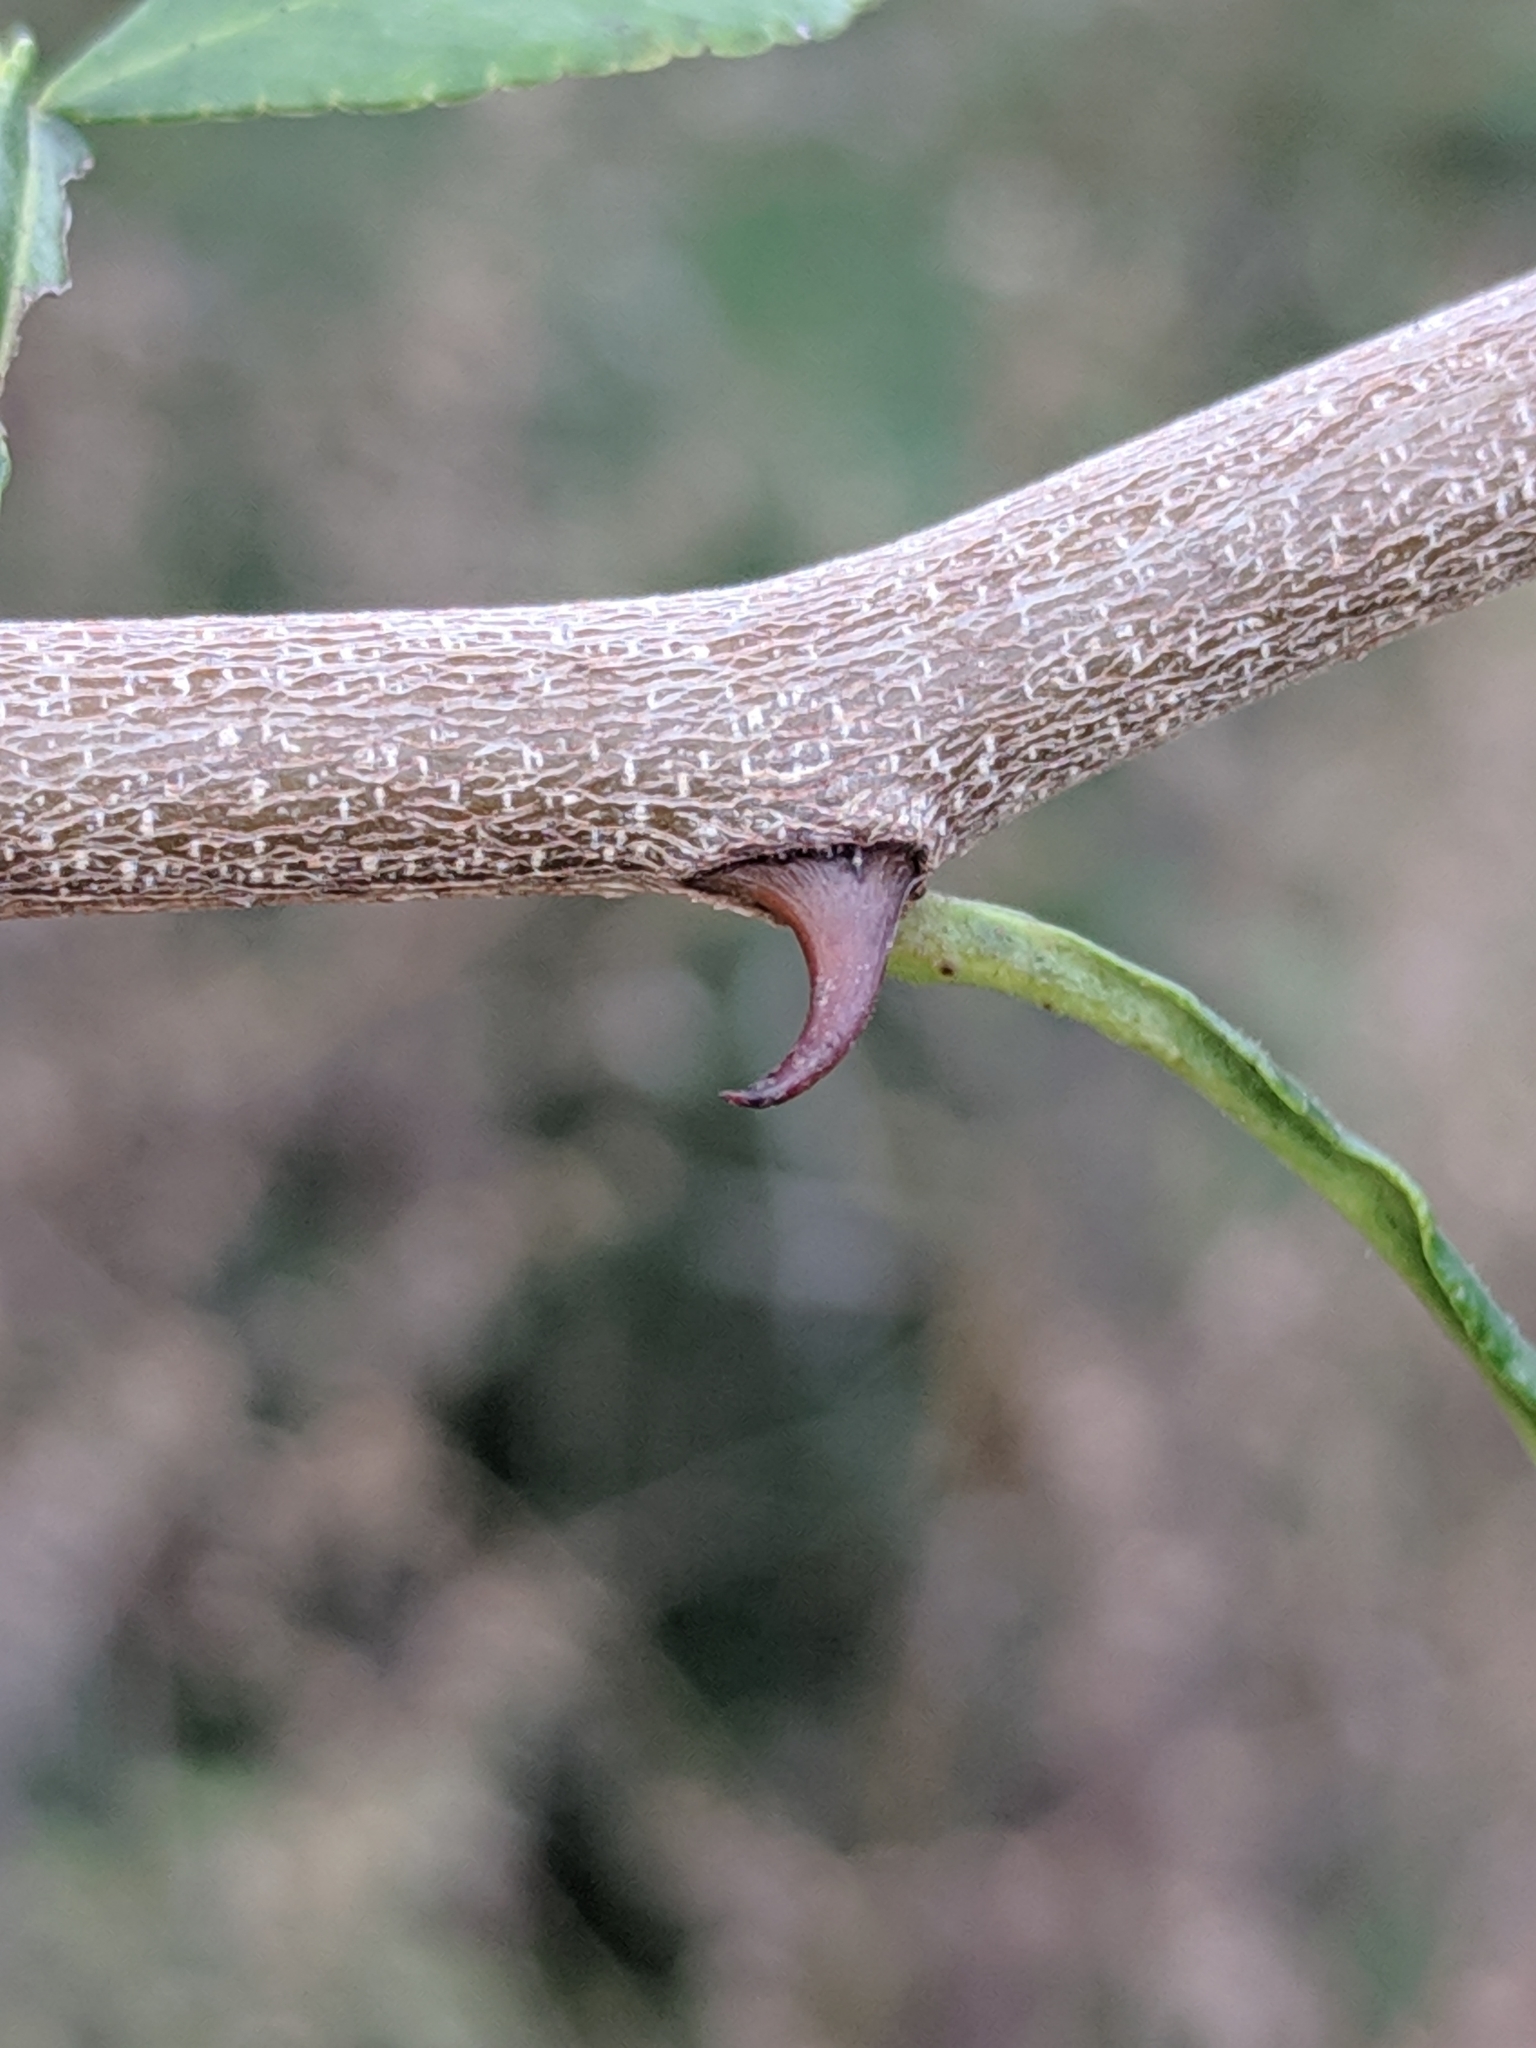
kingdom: Plantae
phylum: Tracheophyta
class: Magnoliopsida
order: Sapindales
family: Rutaceae
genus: Zanthoxylum
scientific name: Zanthoxylum fagara
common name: Lime prickly-ash
